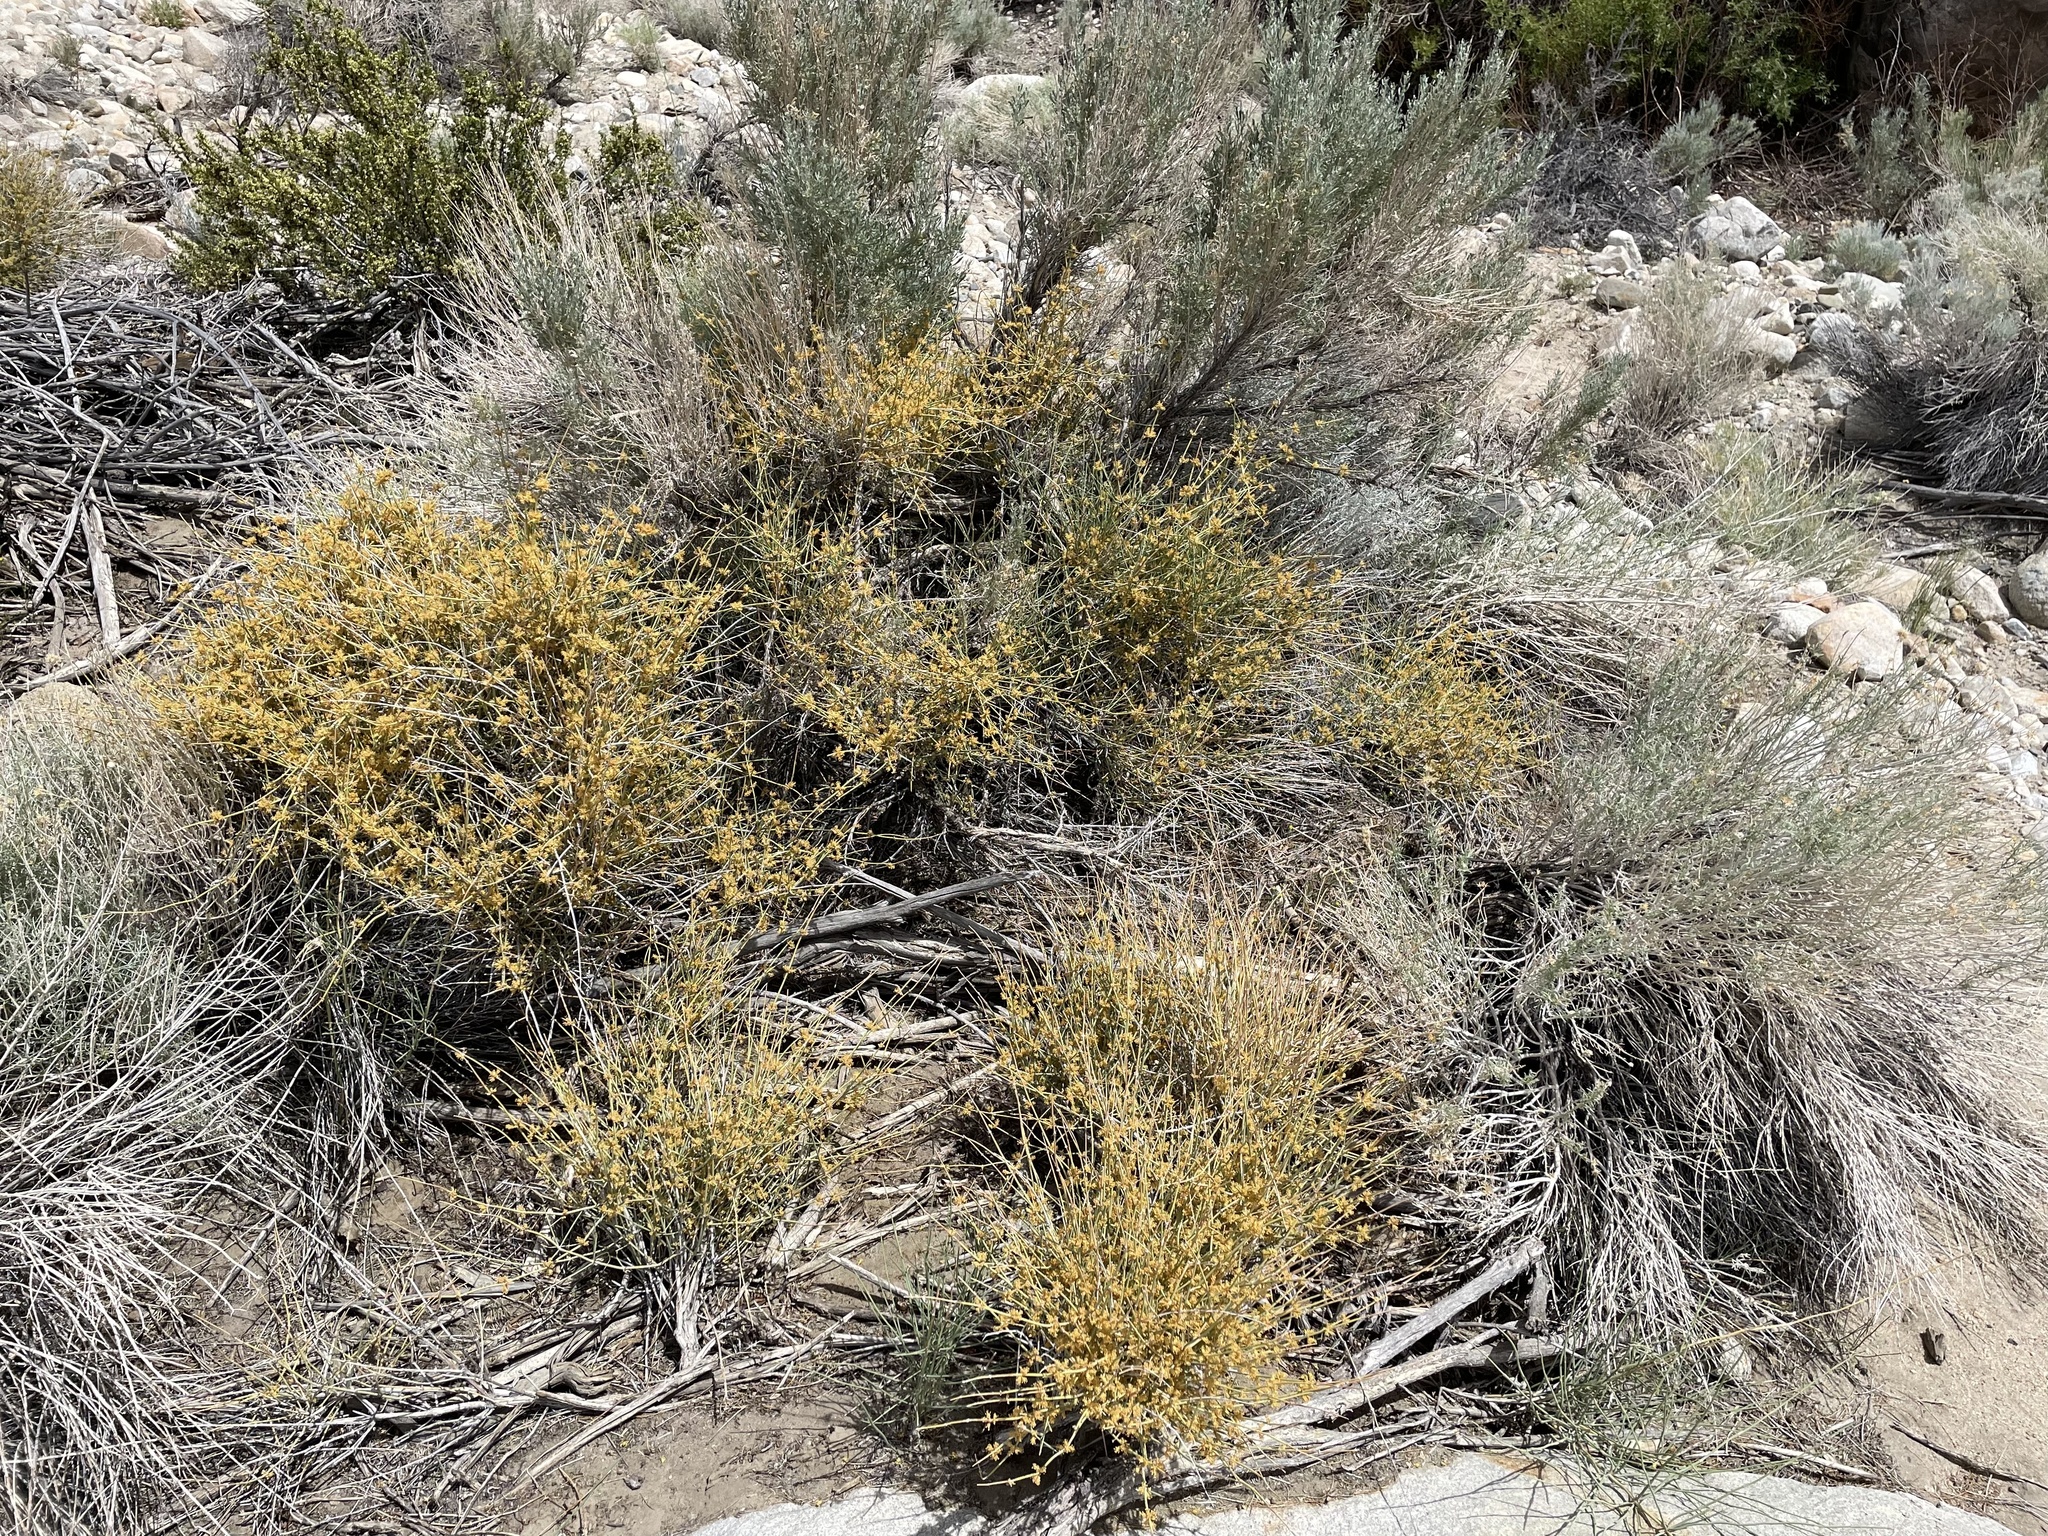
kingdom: Plantae
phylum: Tracheophyta
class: Gnetopsida
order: Ephedrales
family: Ephedraceae
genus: Ephedra
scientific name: Ephedra nevadensis
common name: Gray ephedra
